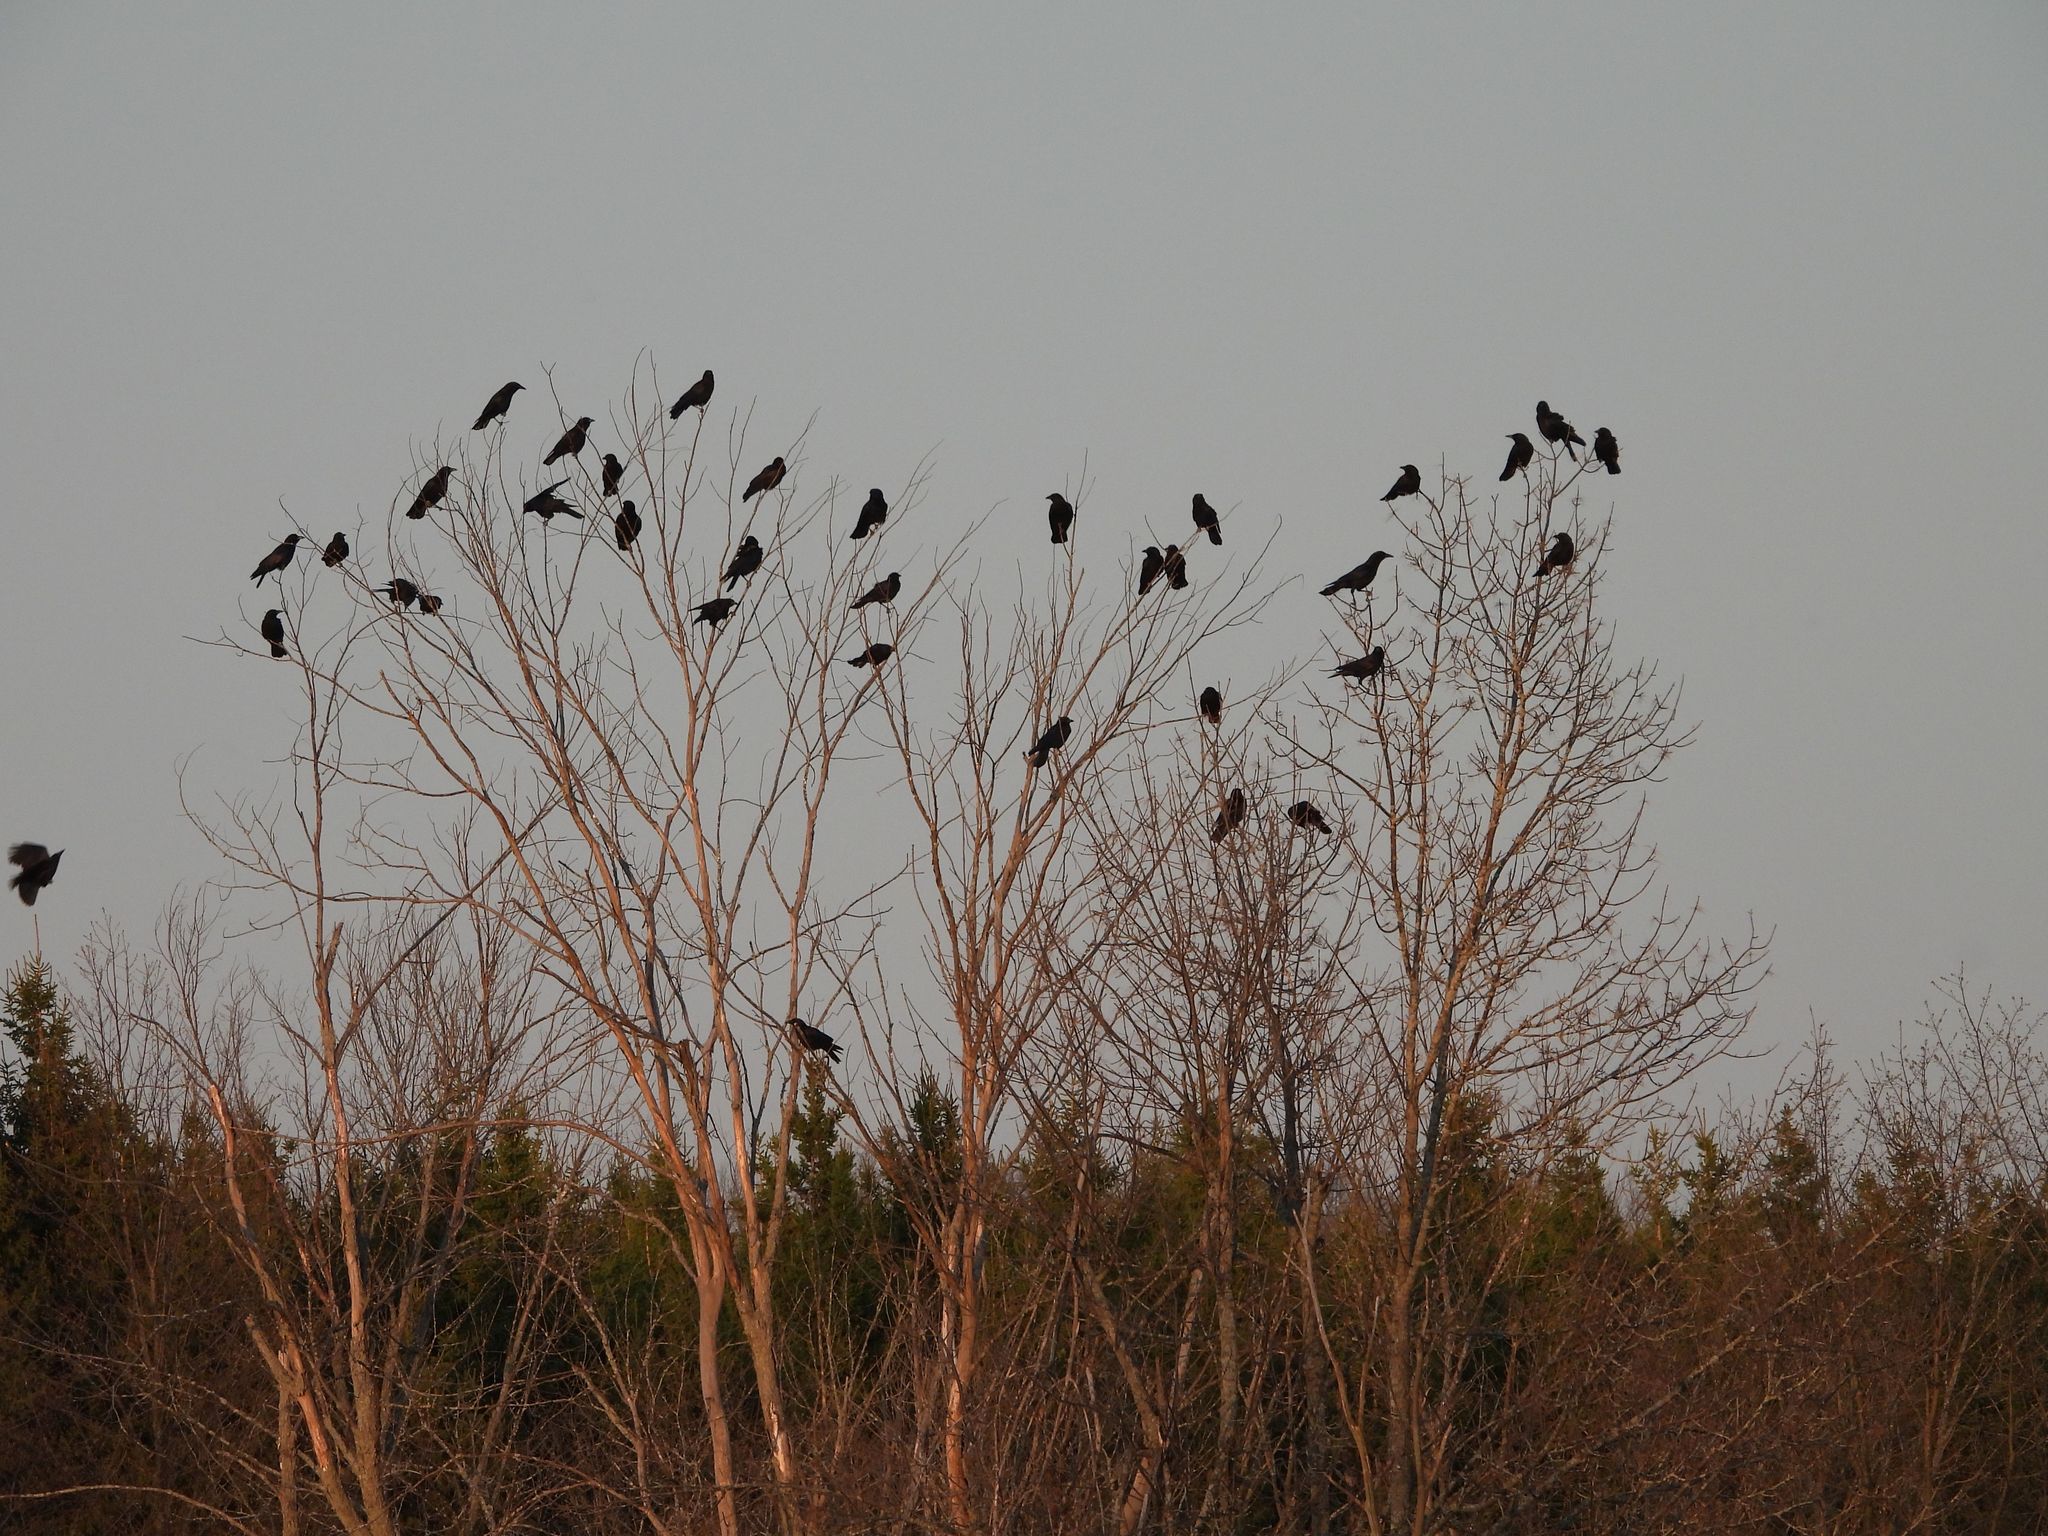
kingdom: Animalia
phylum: Chordata
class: Aves
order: Passeriformes
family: Corvidae
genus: Corvus
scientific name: Corvus brachyrhynchos
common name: American crow
